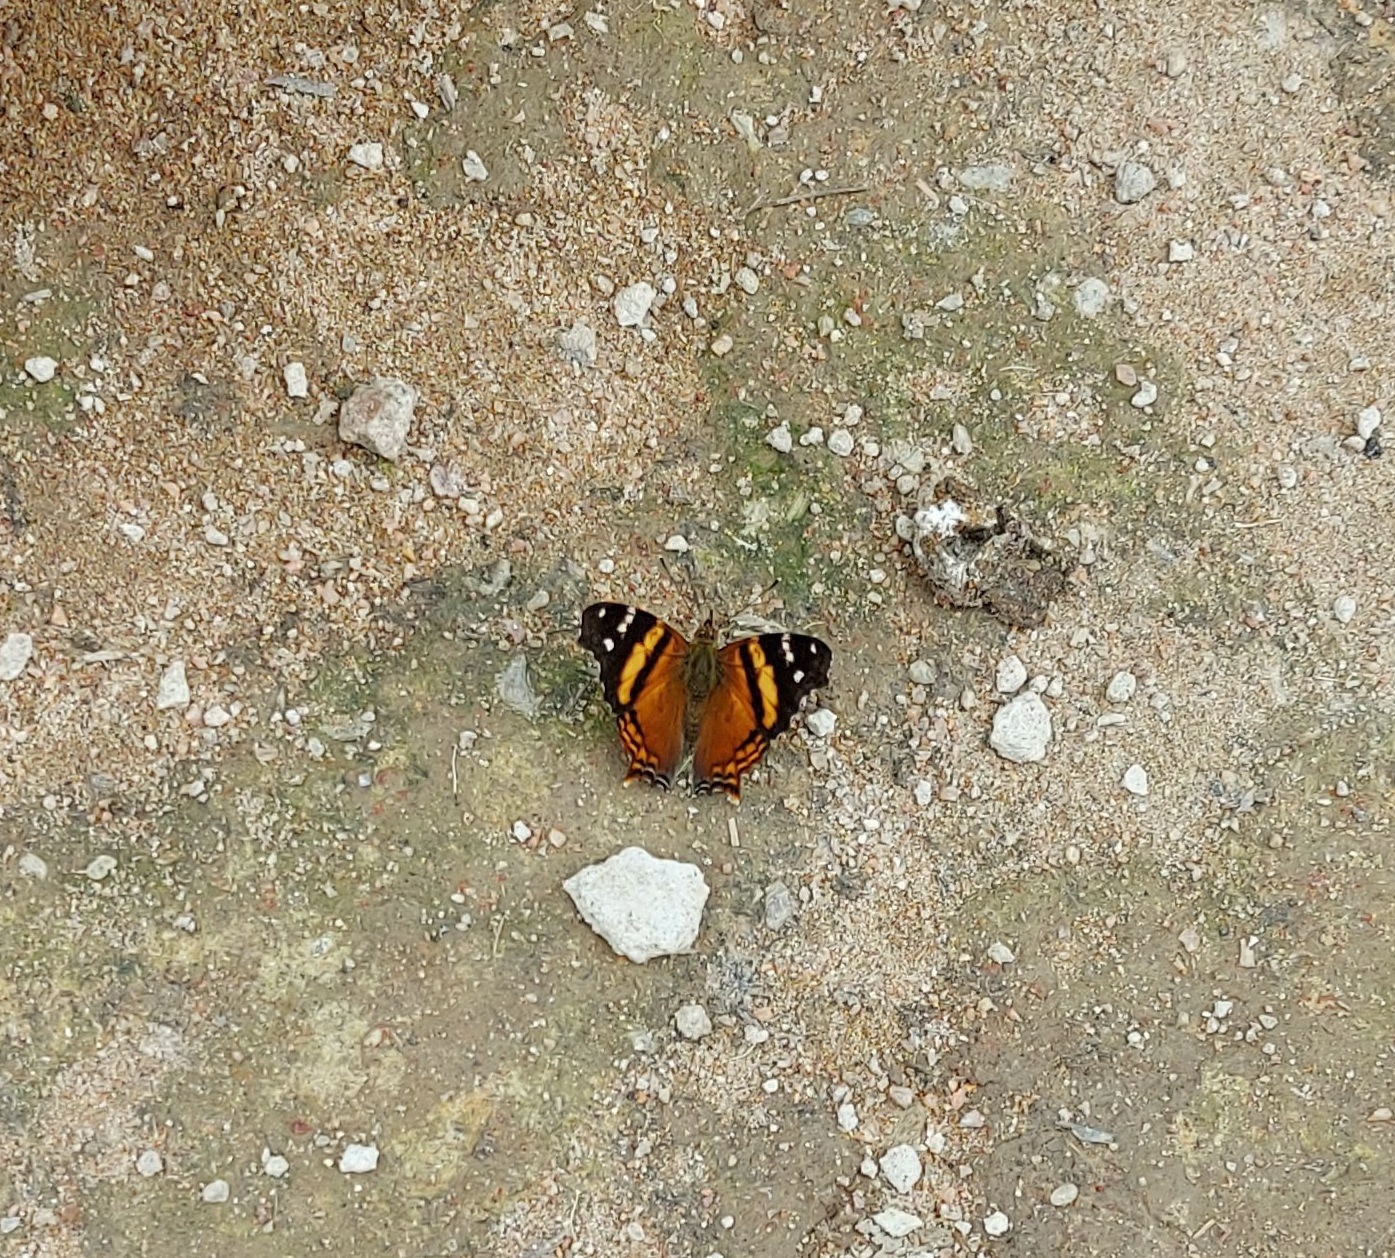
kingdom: Animalia
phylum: Arthropoda
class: Insecta
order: Lepidoptera
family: Nymphalidae
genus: Hypanartia
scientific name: Hypanartia bella
